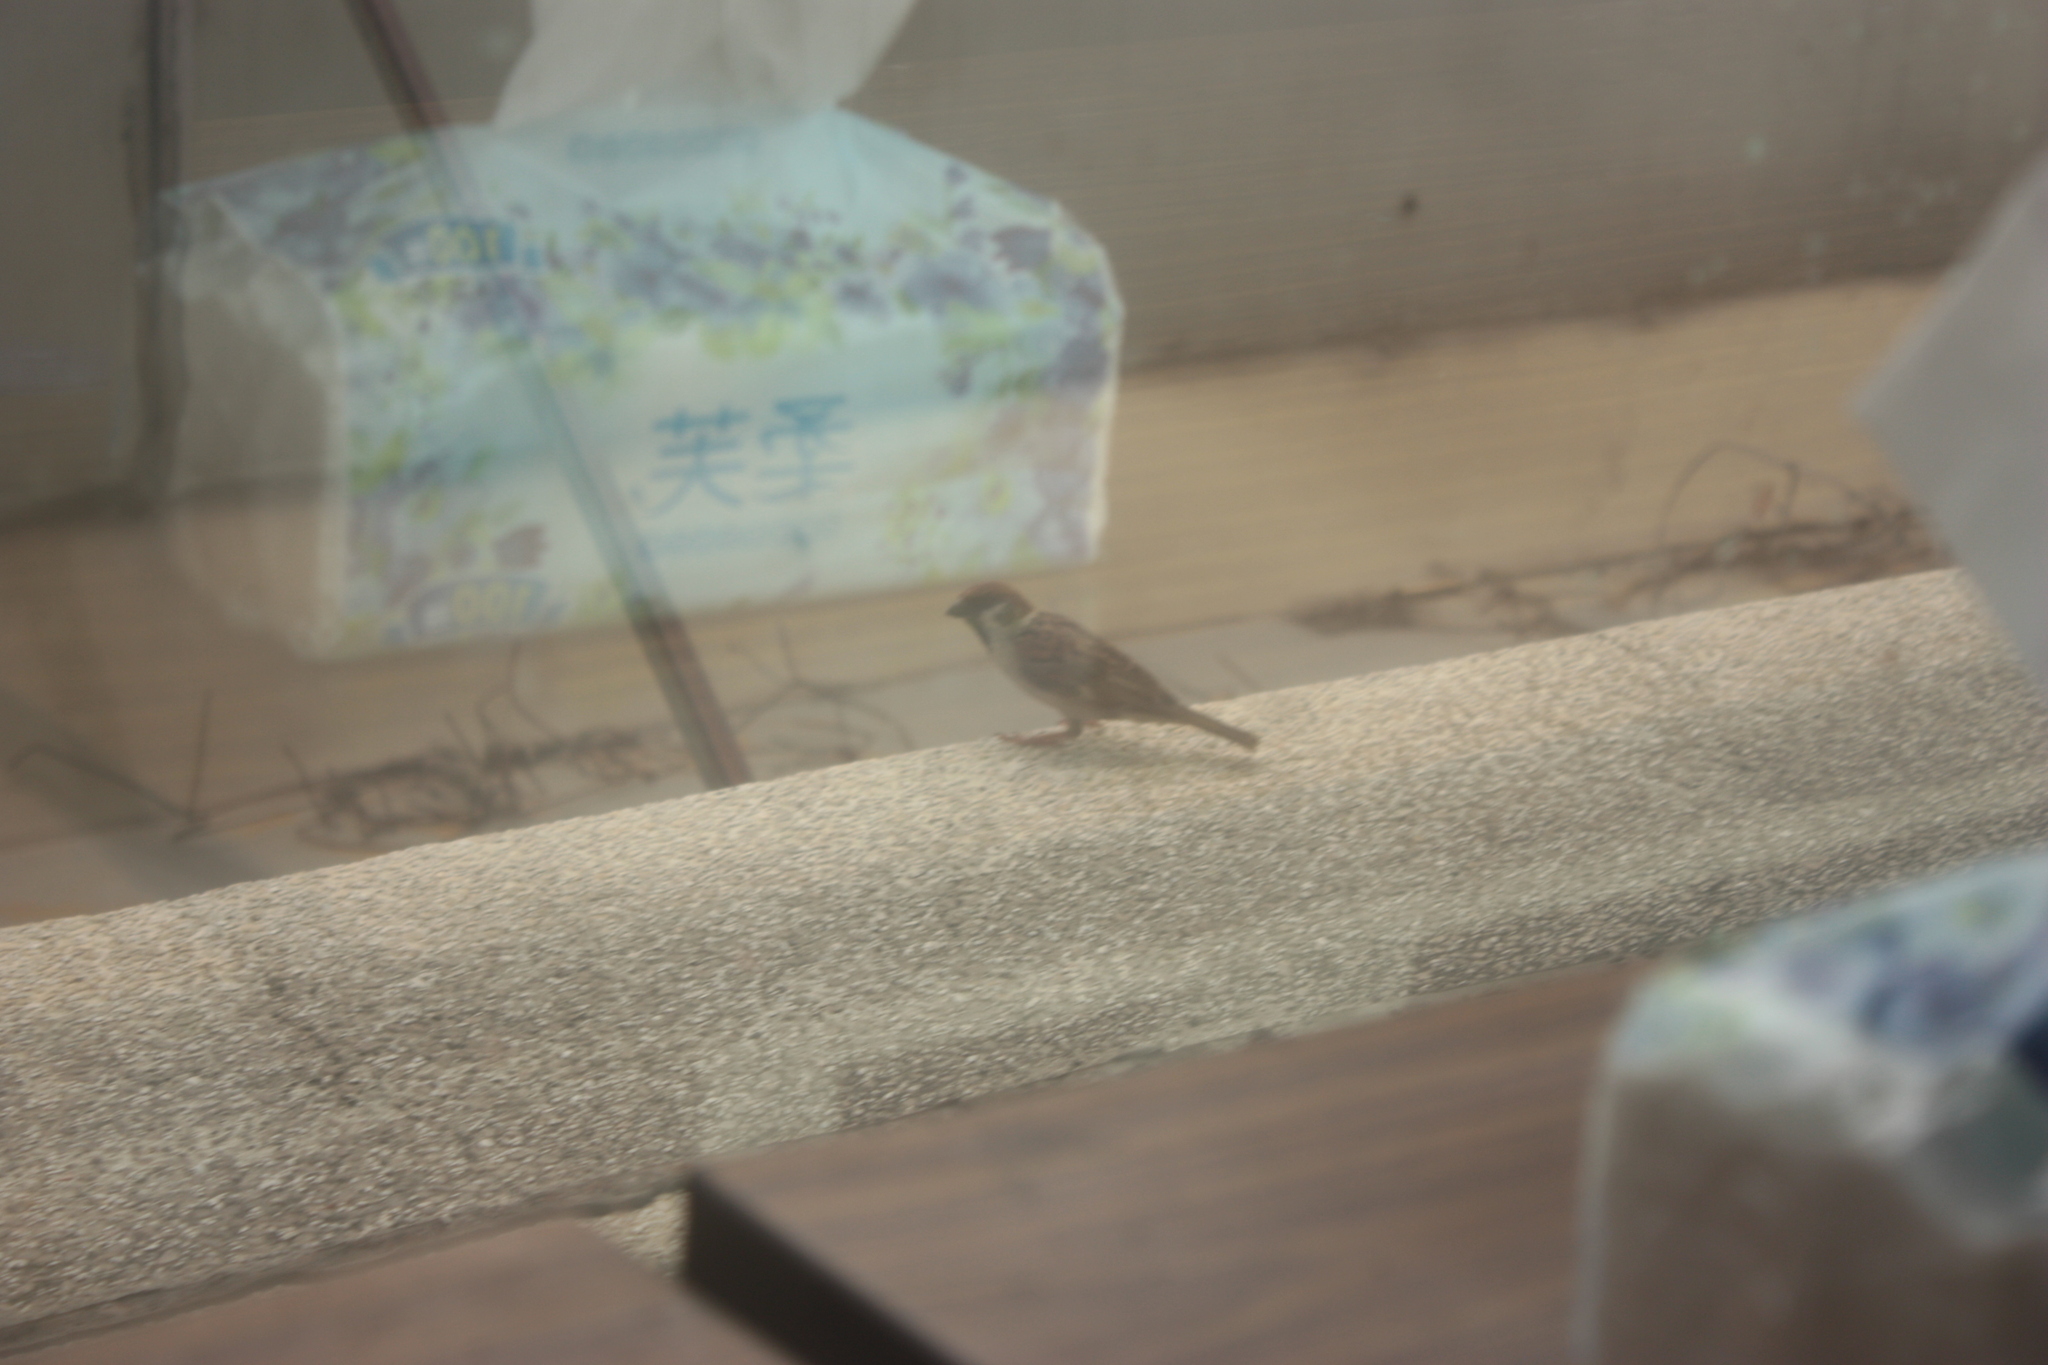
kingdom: Animalia
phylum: Chordata
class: Aves
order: Passeriformes
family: Passeridae
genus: Passer
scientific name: Passer montanus
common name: Eurasian tree sparrow
